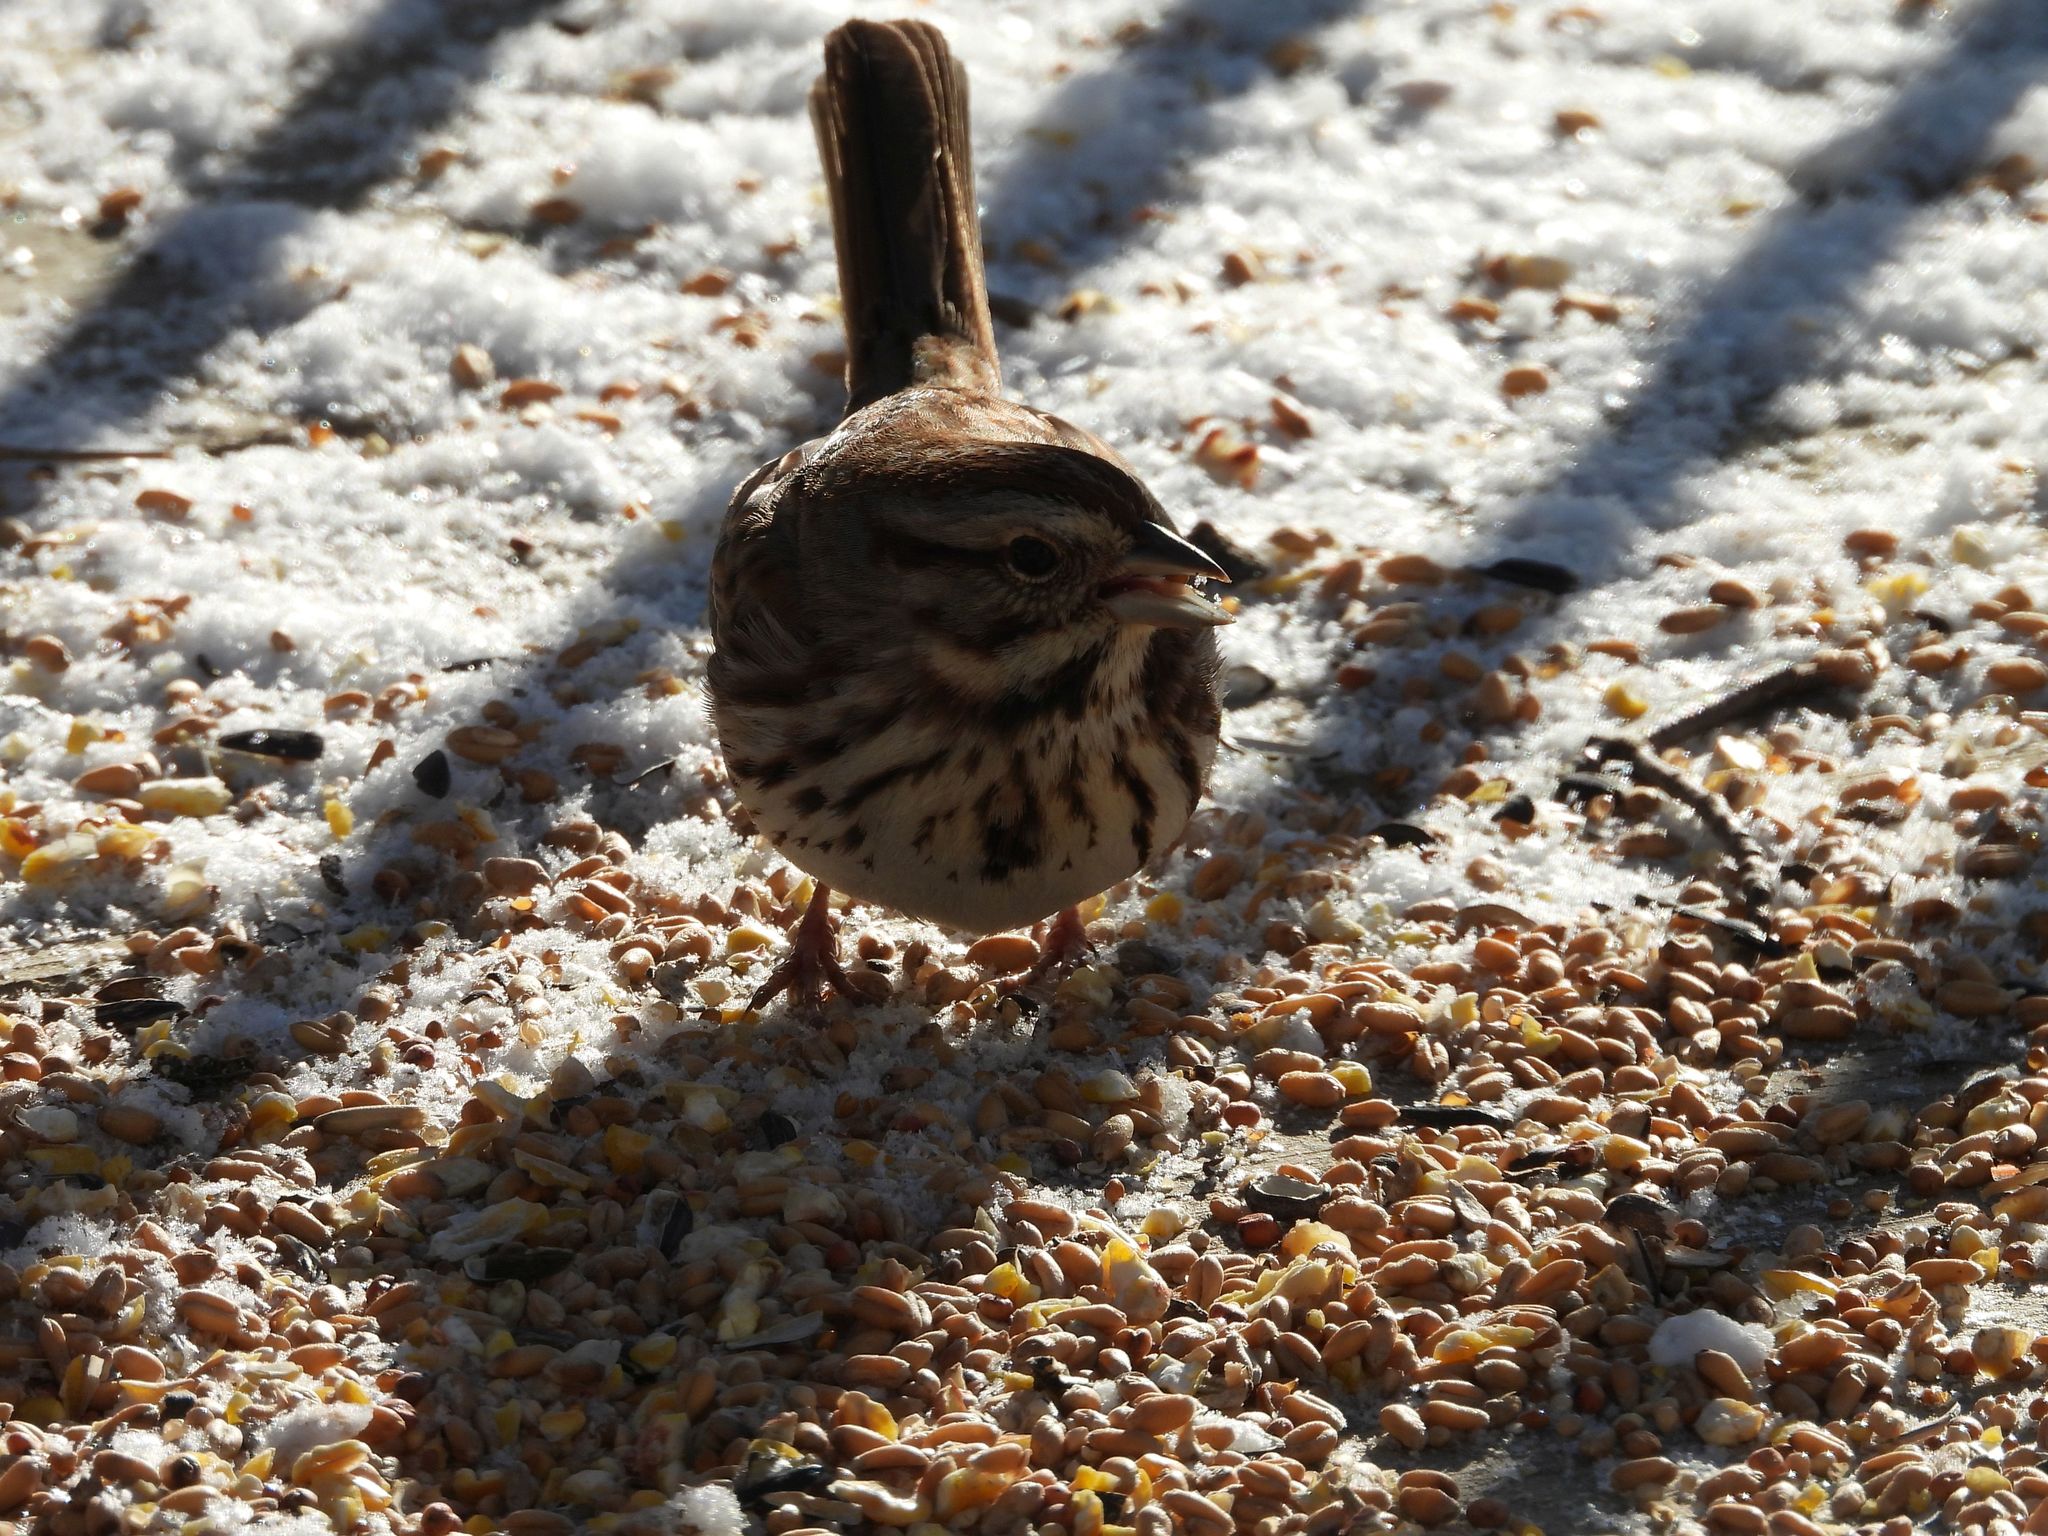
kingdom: Animalia
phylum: Chordata
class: Aves
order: Passeriformes
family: Passerellidae
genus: Melospiza
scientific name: Melospiza melodia
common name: Song sparrow
